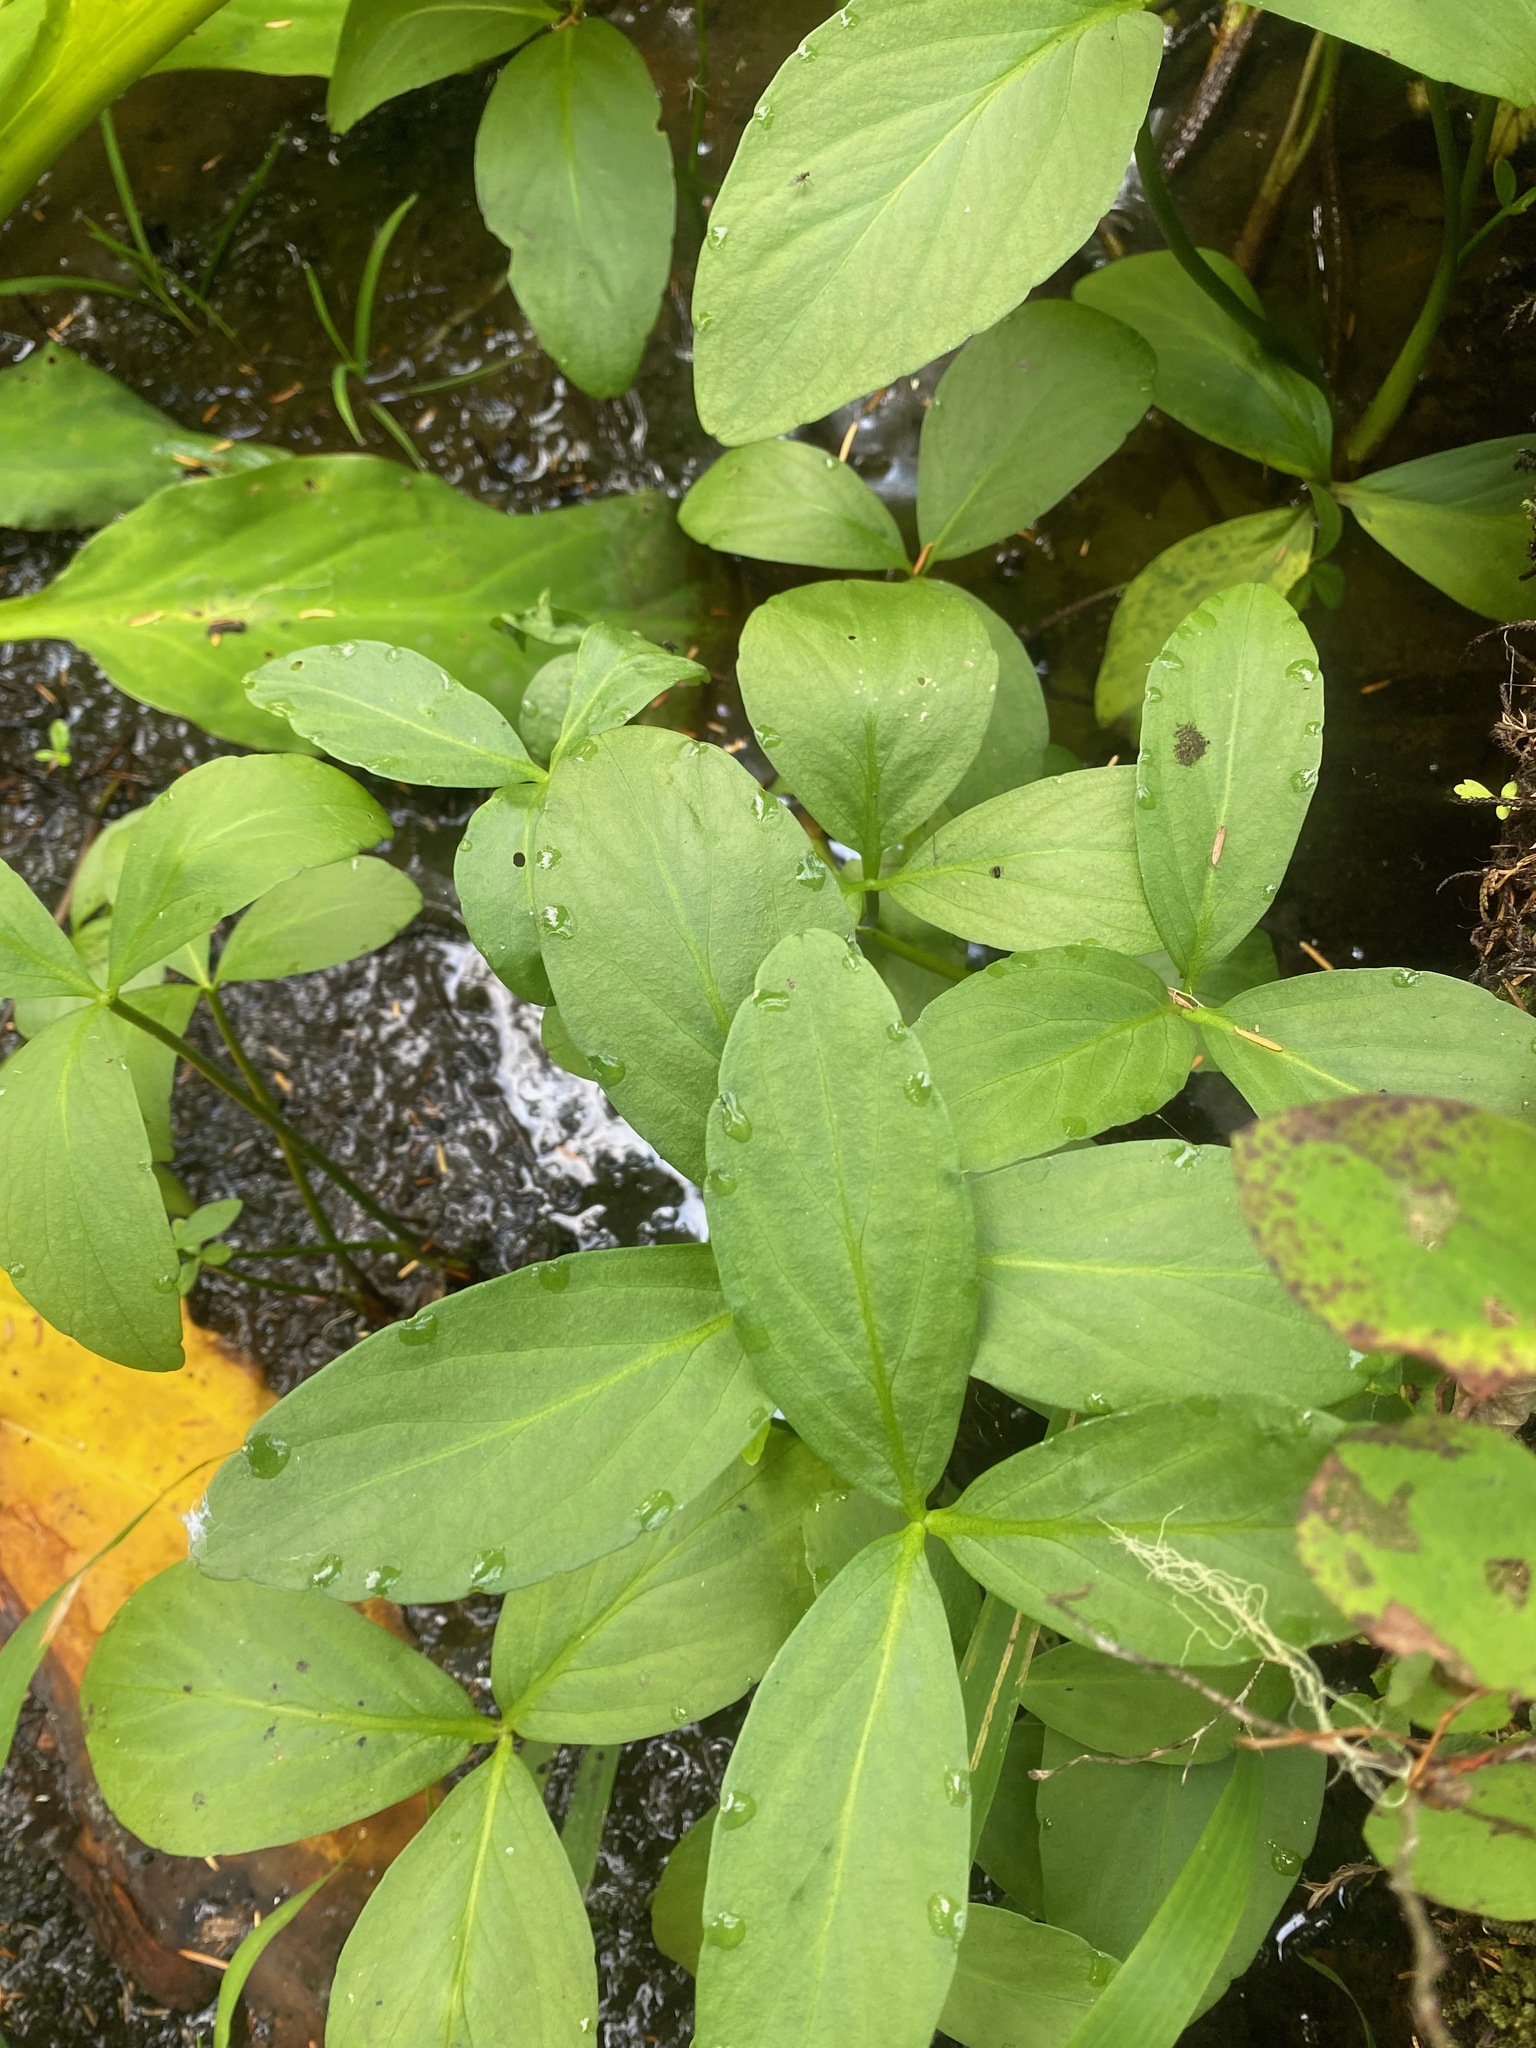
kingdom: Plantae
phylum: Tracheophyta
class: Magnoliopsida
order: Asterales
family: Menyanthaceae
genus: Menyanthes
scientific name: Menyanthes trifoliata
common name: Bogbean
